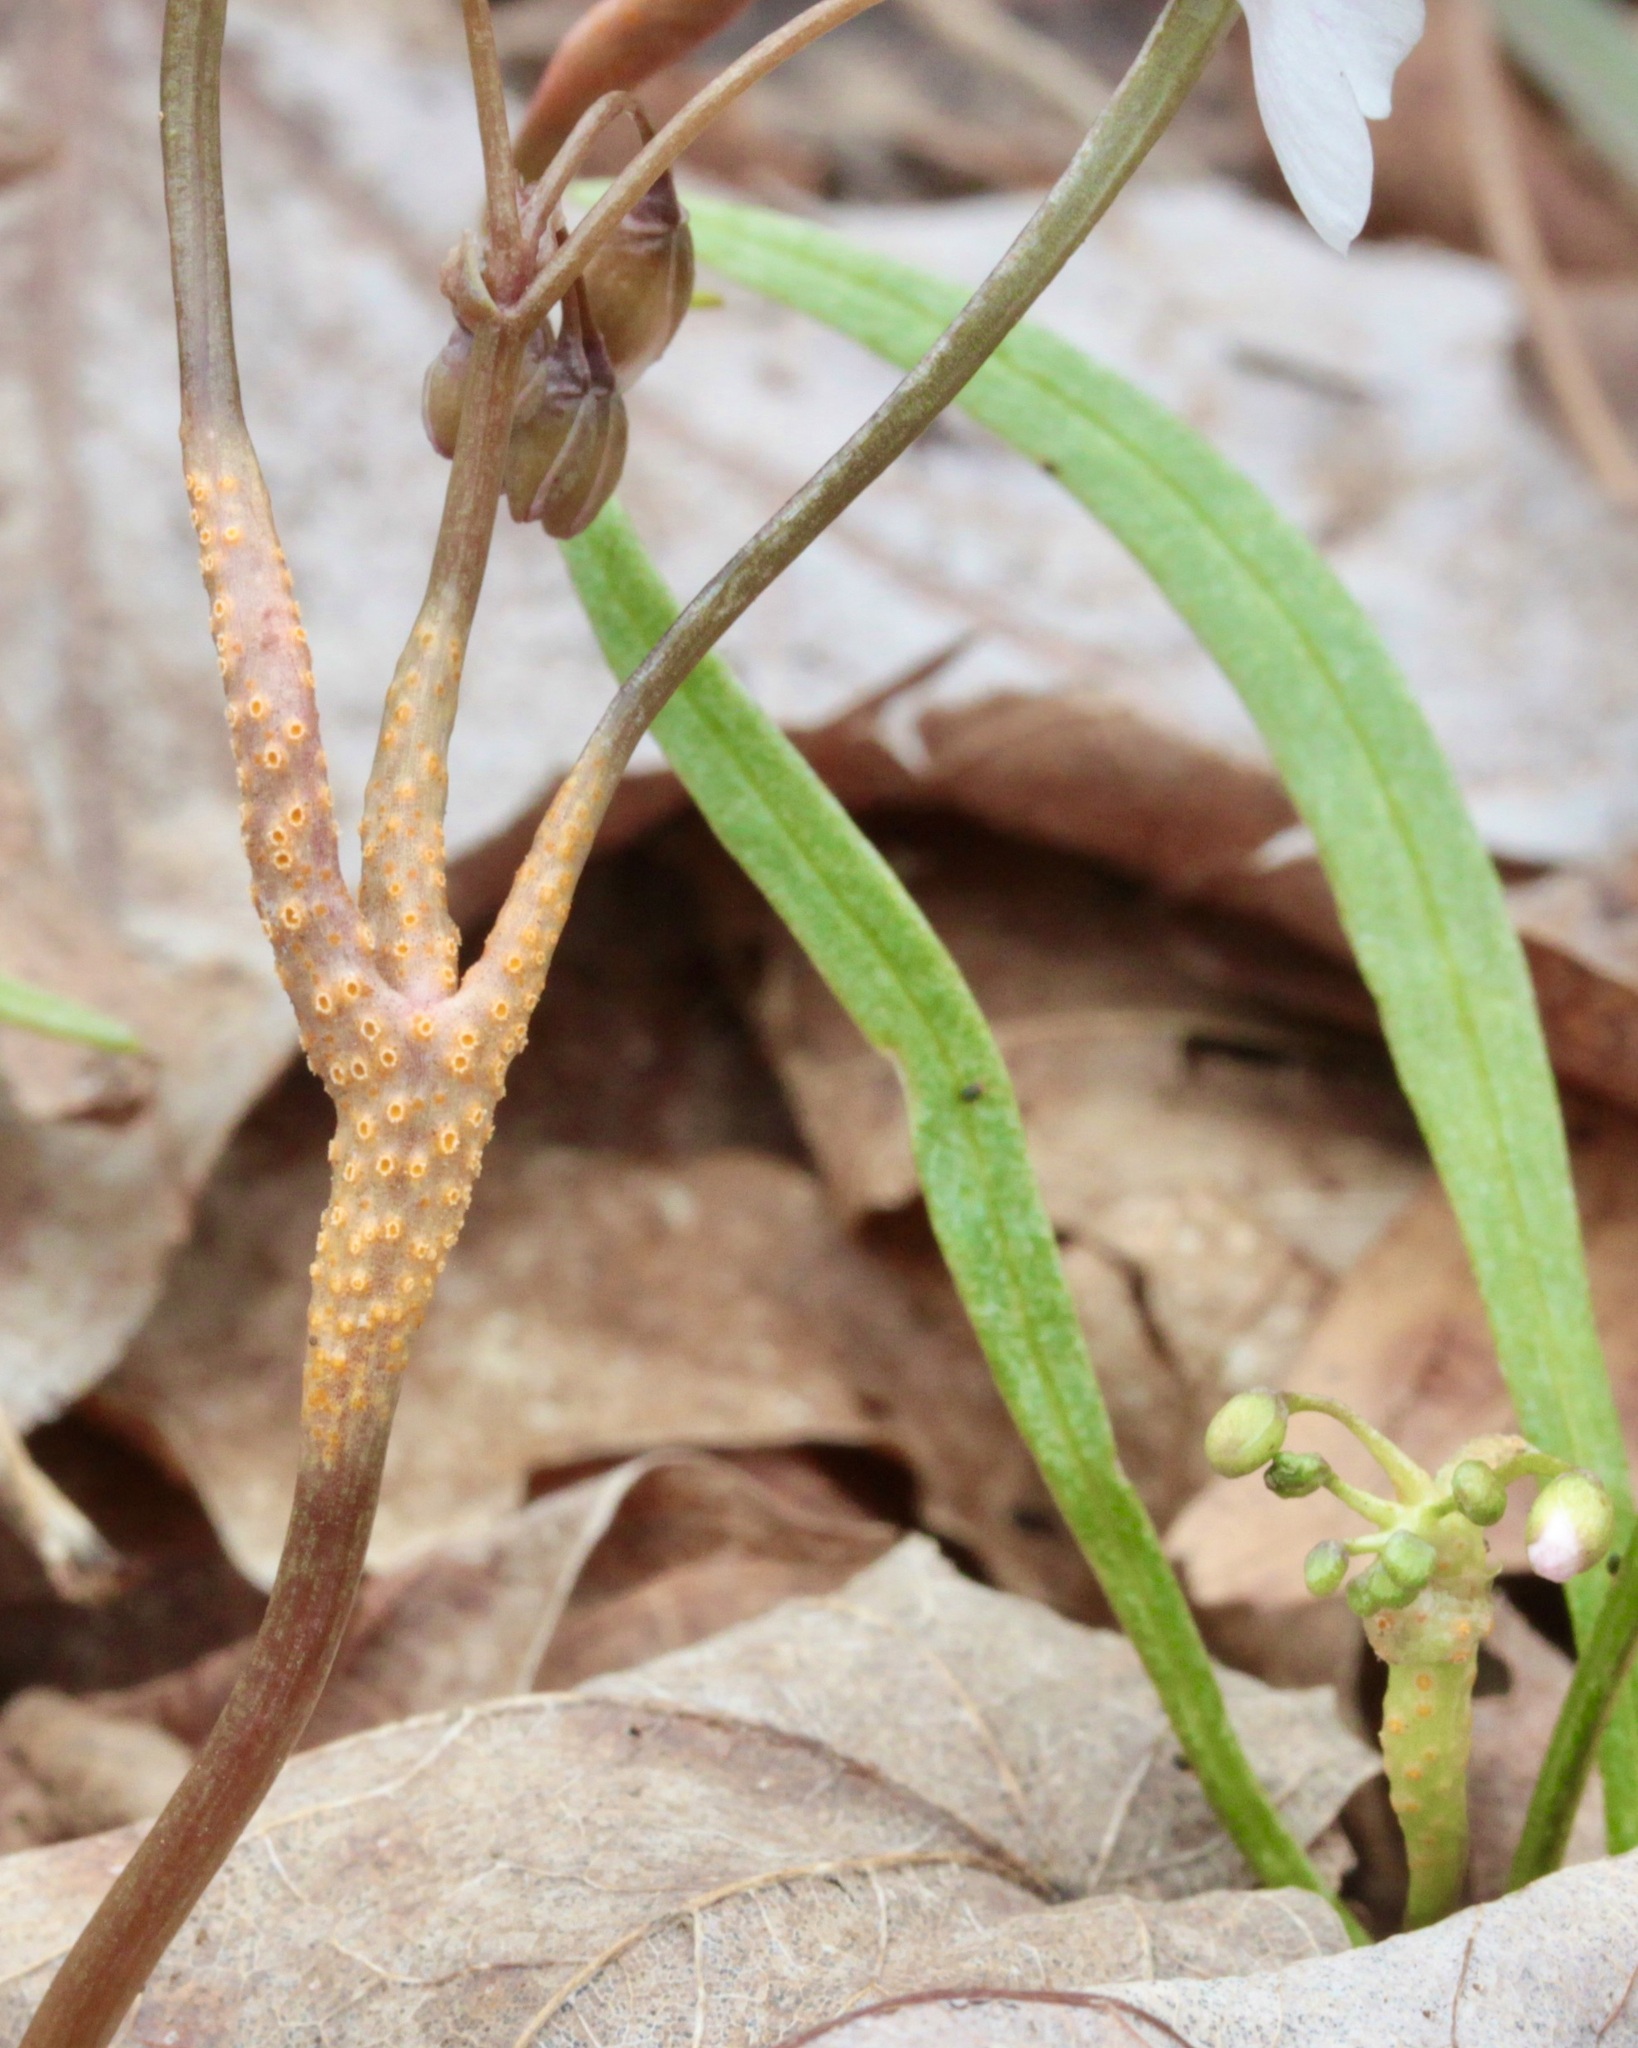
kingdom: Fungi
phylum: Basidiomycota
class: Pucciniomycetes
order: Pucciniales
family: Pucciniaceae
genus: Puccinia
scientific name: Puccinia mariae-wilsoniae
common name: Spring beauty rust
